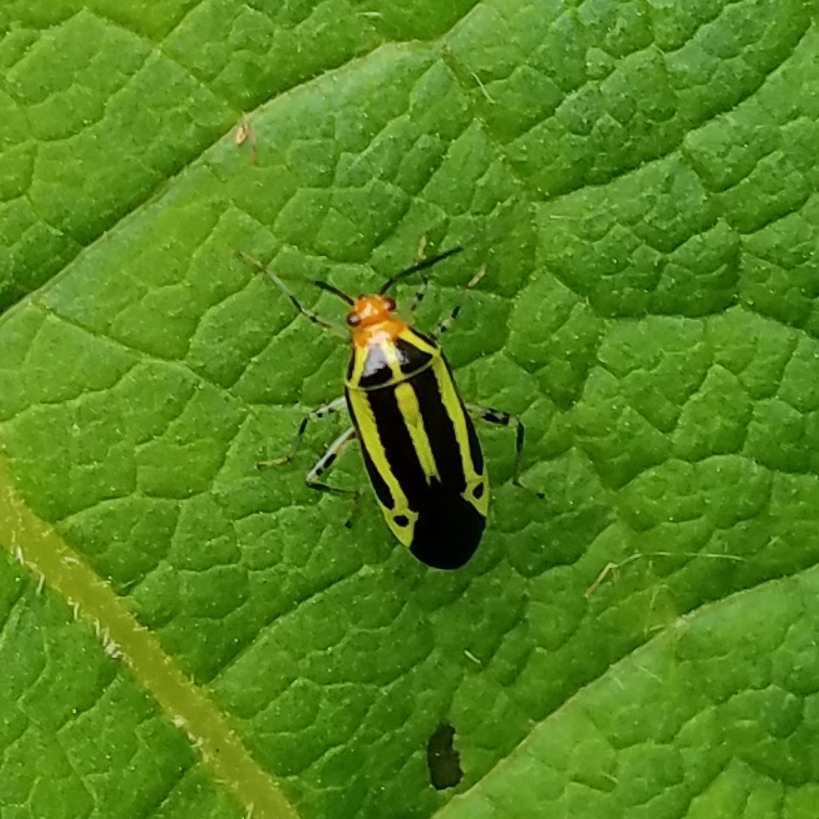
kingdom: Animalia
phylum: Arthropoda
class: Insecta
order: Hemiptera
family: Miridae
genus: Poecilocapsus
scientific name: Poecilocapsus lineatus
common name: Four-lined plant bug
